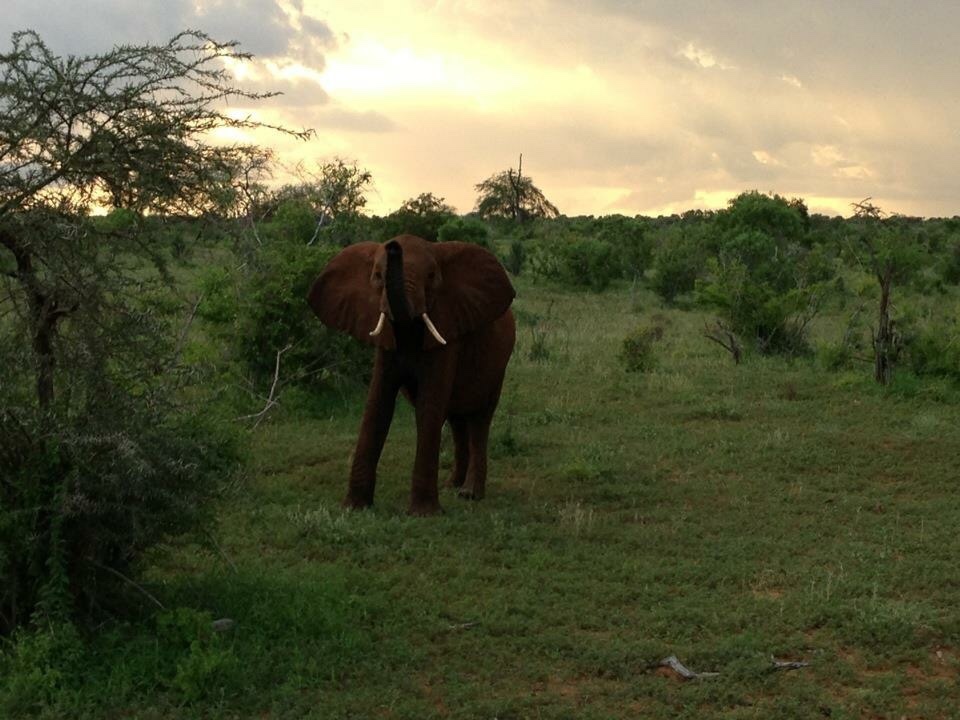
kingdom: Animalia
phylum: Chordata
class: Mammalia
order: Proboscidea
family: Elephantidae
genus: Loxodonta
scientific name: Loxodonta africana
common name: African elephant
